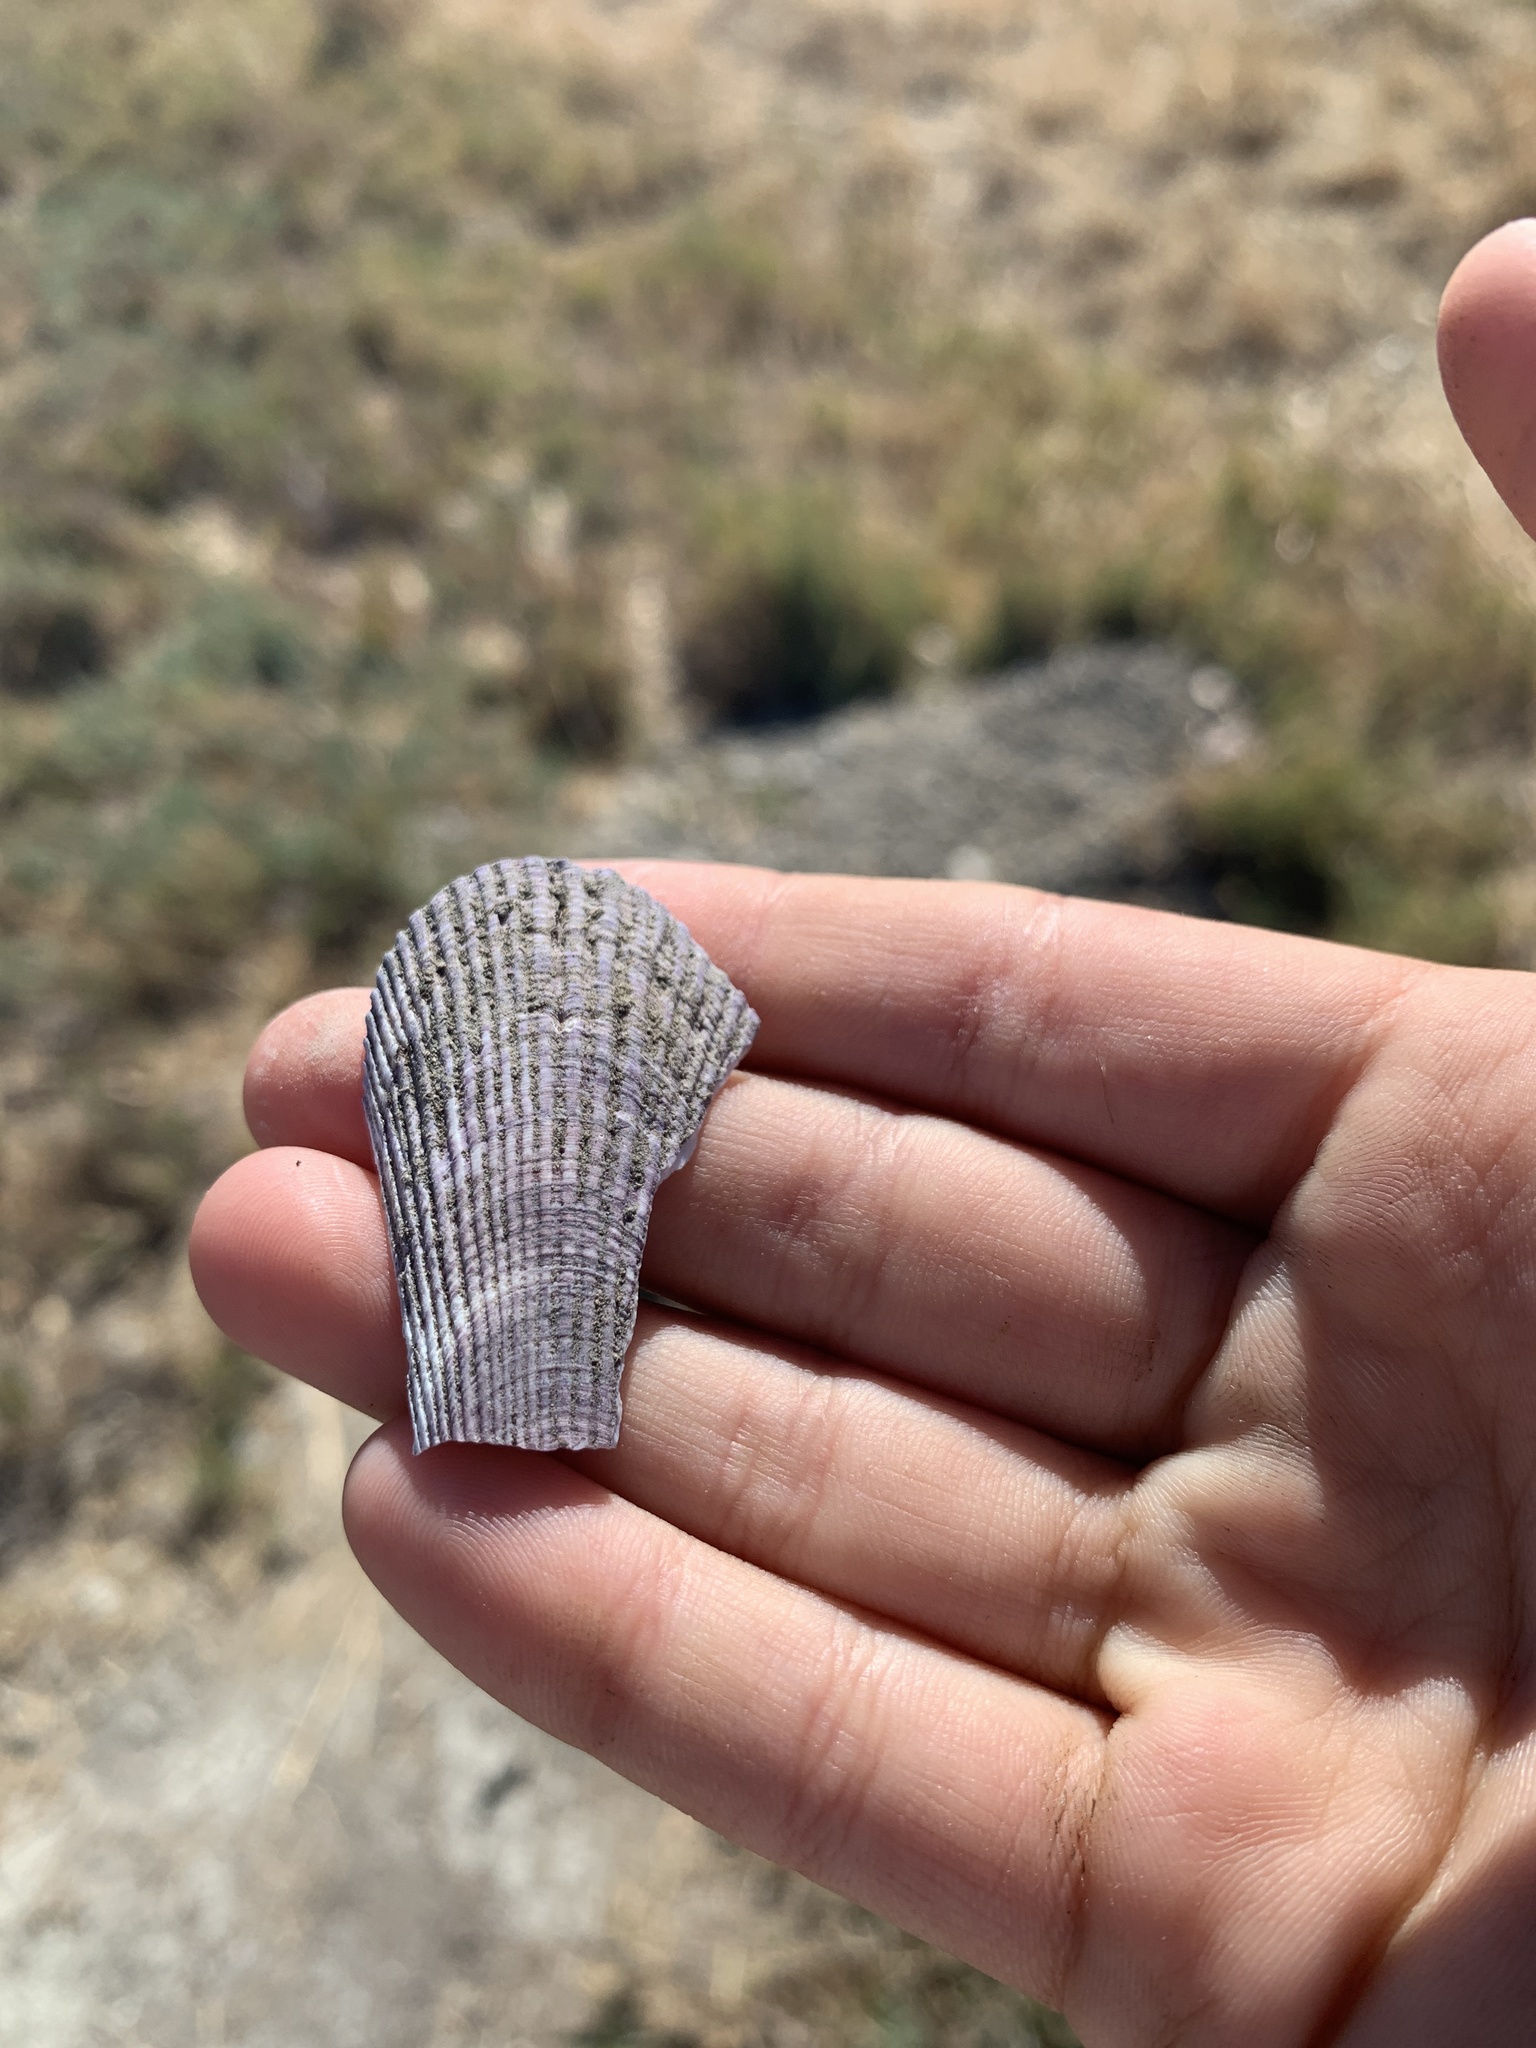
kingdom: Animalia
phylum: Mollusca
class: Bivalvia
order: Mytilida
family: Mytilidae
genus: Geukensia
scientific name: Geukensia demissa
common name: Ribbed mussel
